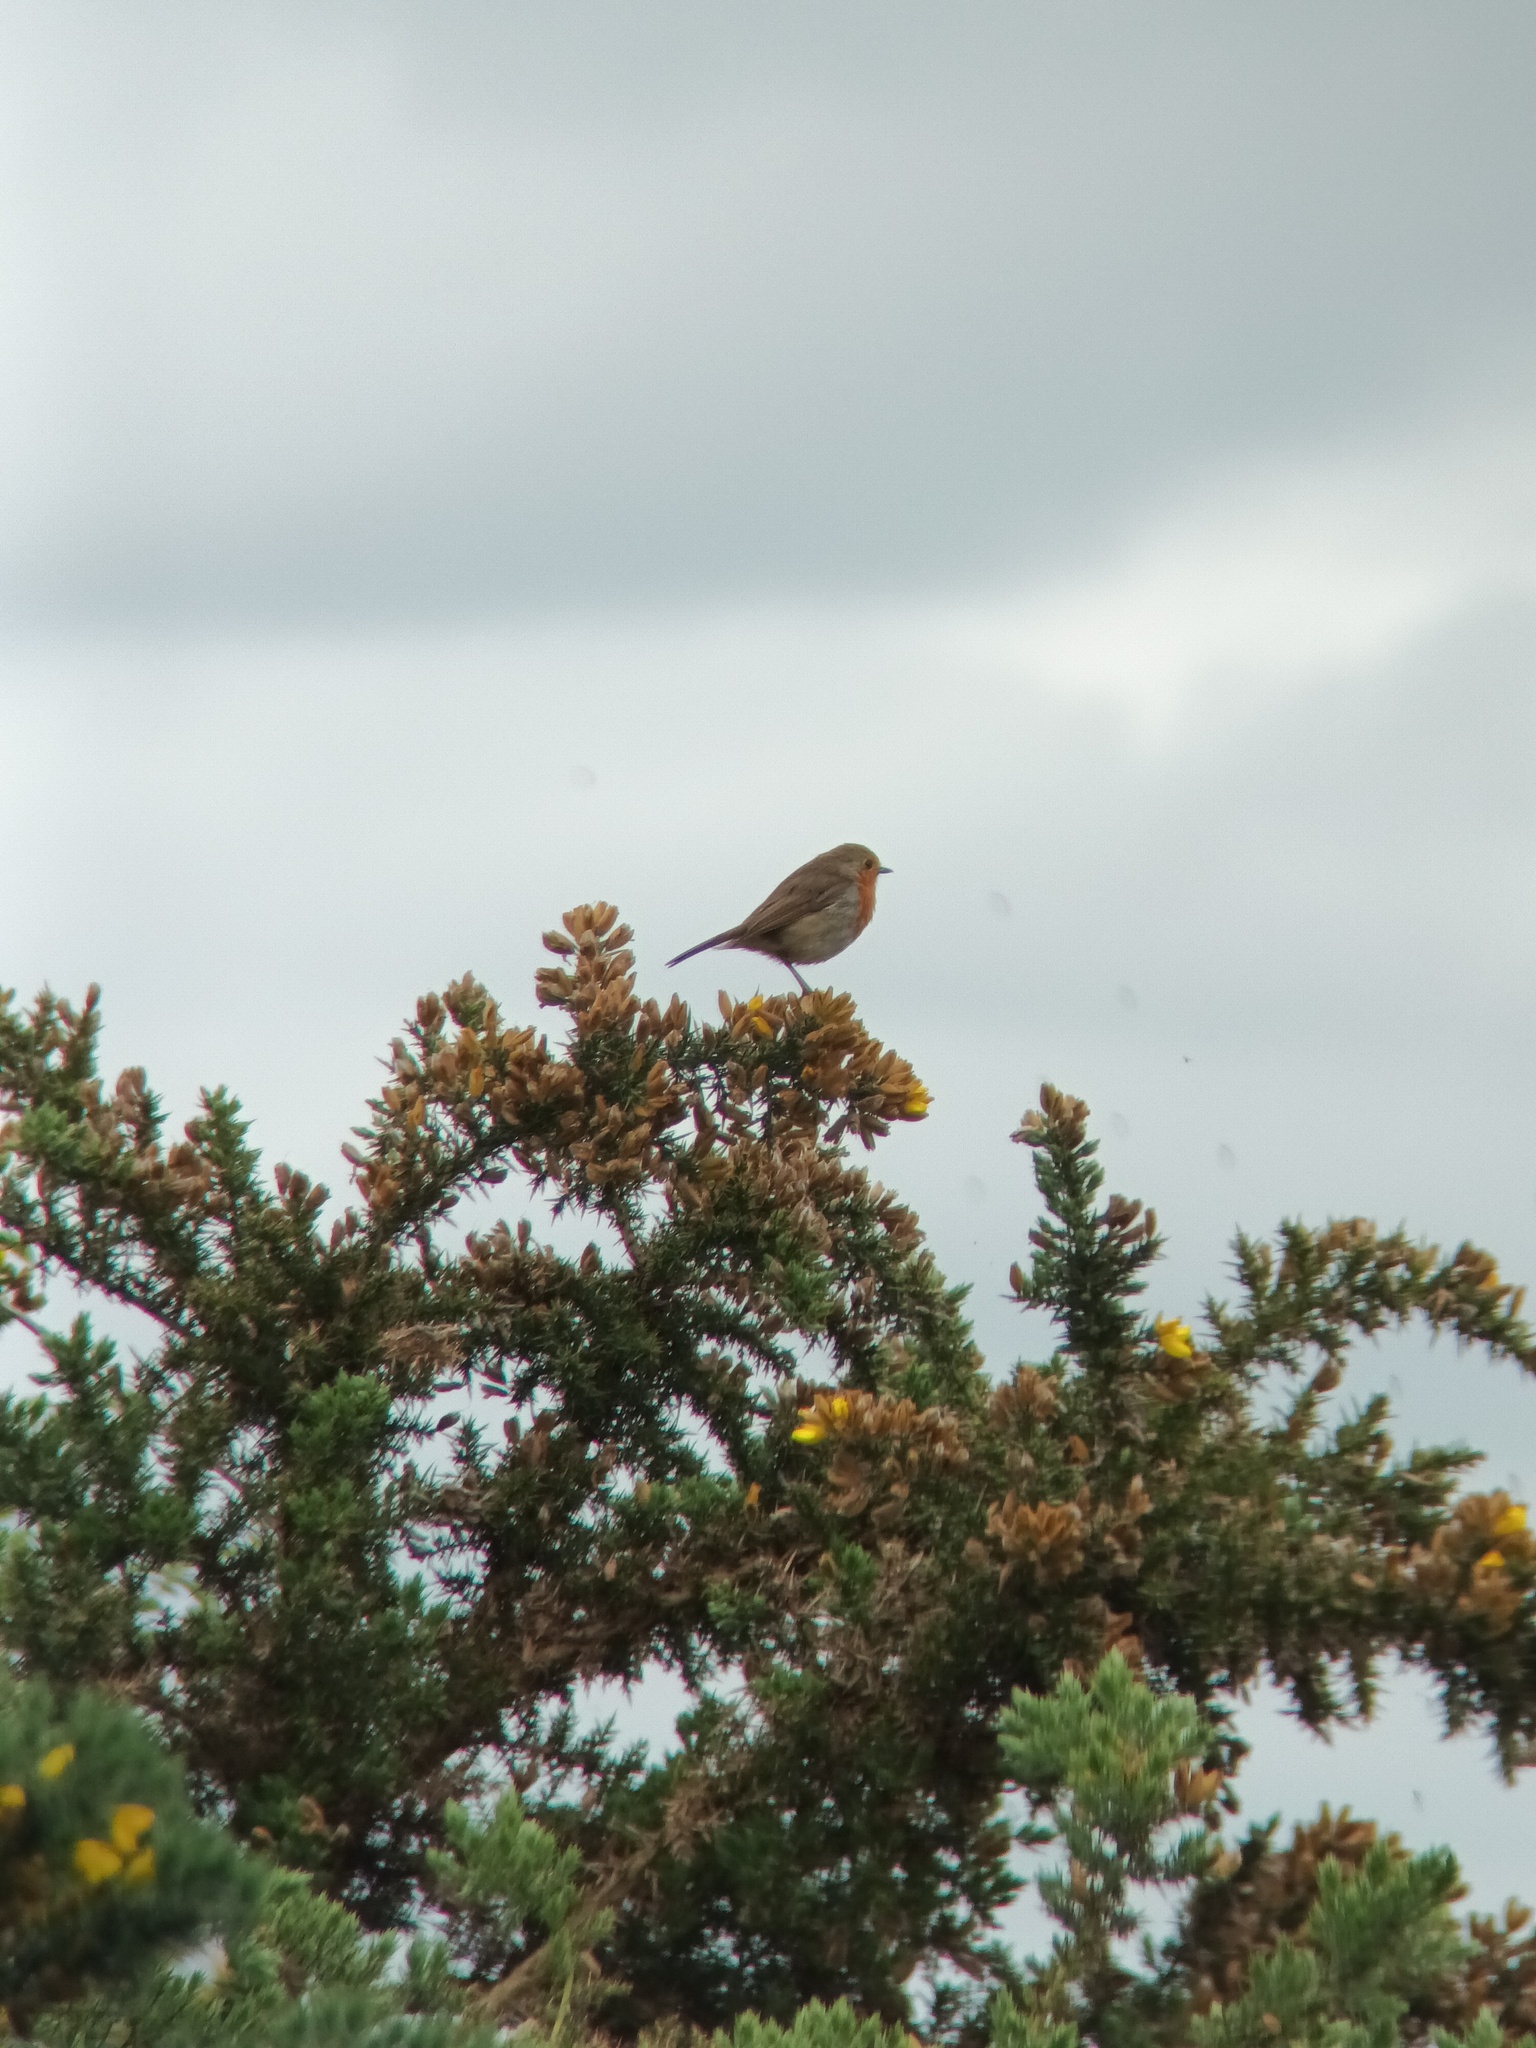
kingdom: Animalia
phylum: Chordata
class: Aves
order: Passeriformes
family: Muscicapidae
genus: Erithacus
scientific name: Erithacus rubecula
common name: European robin
